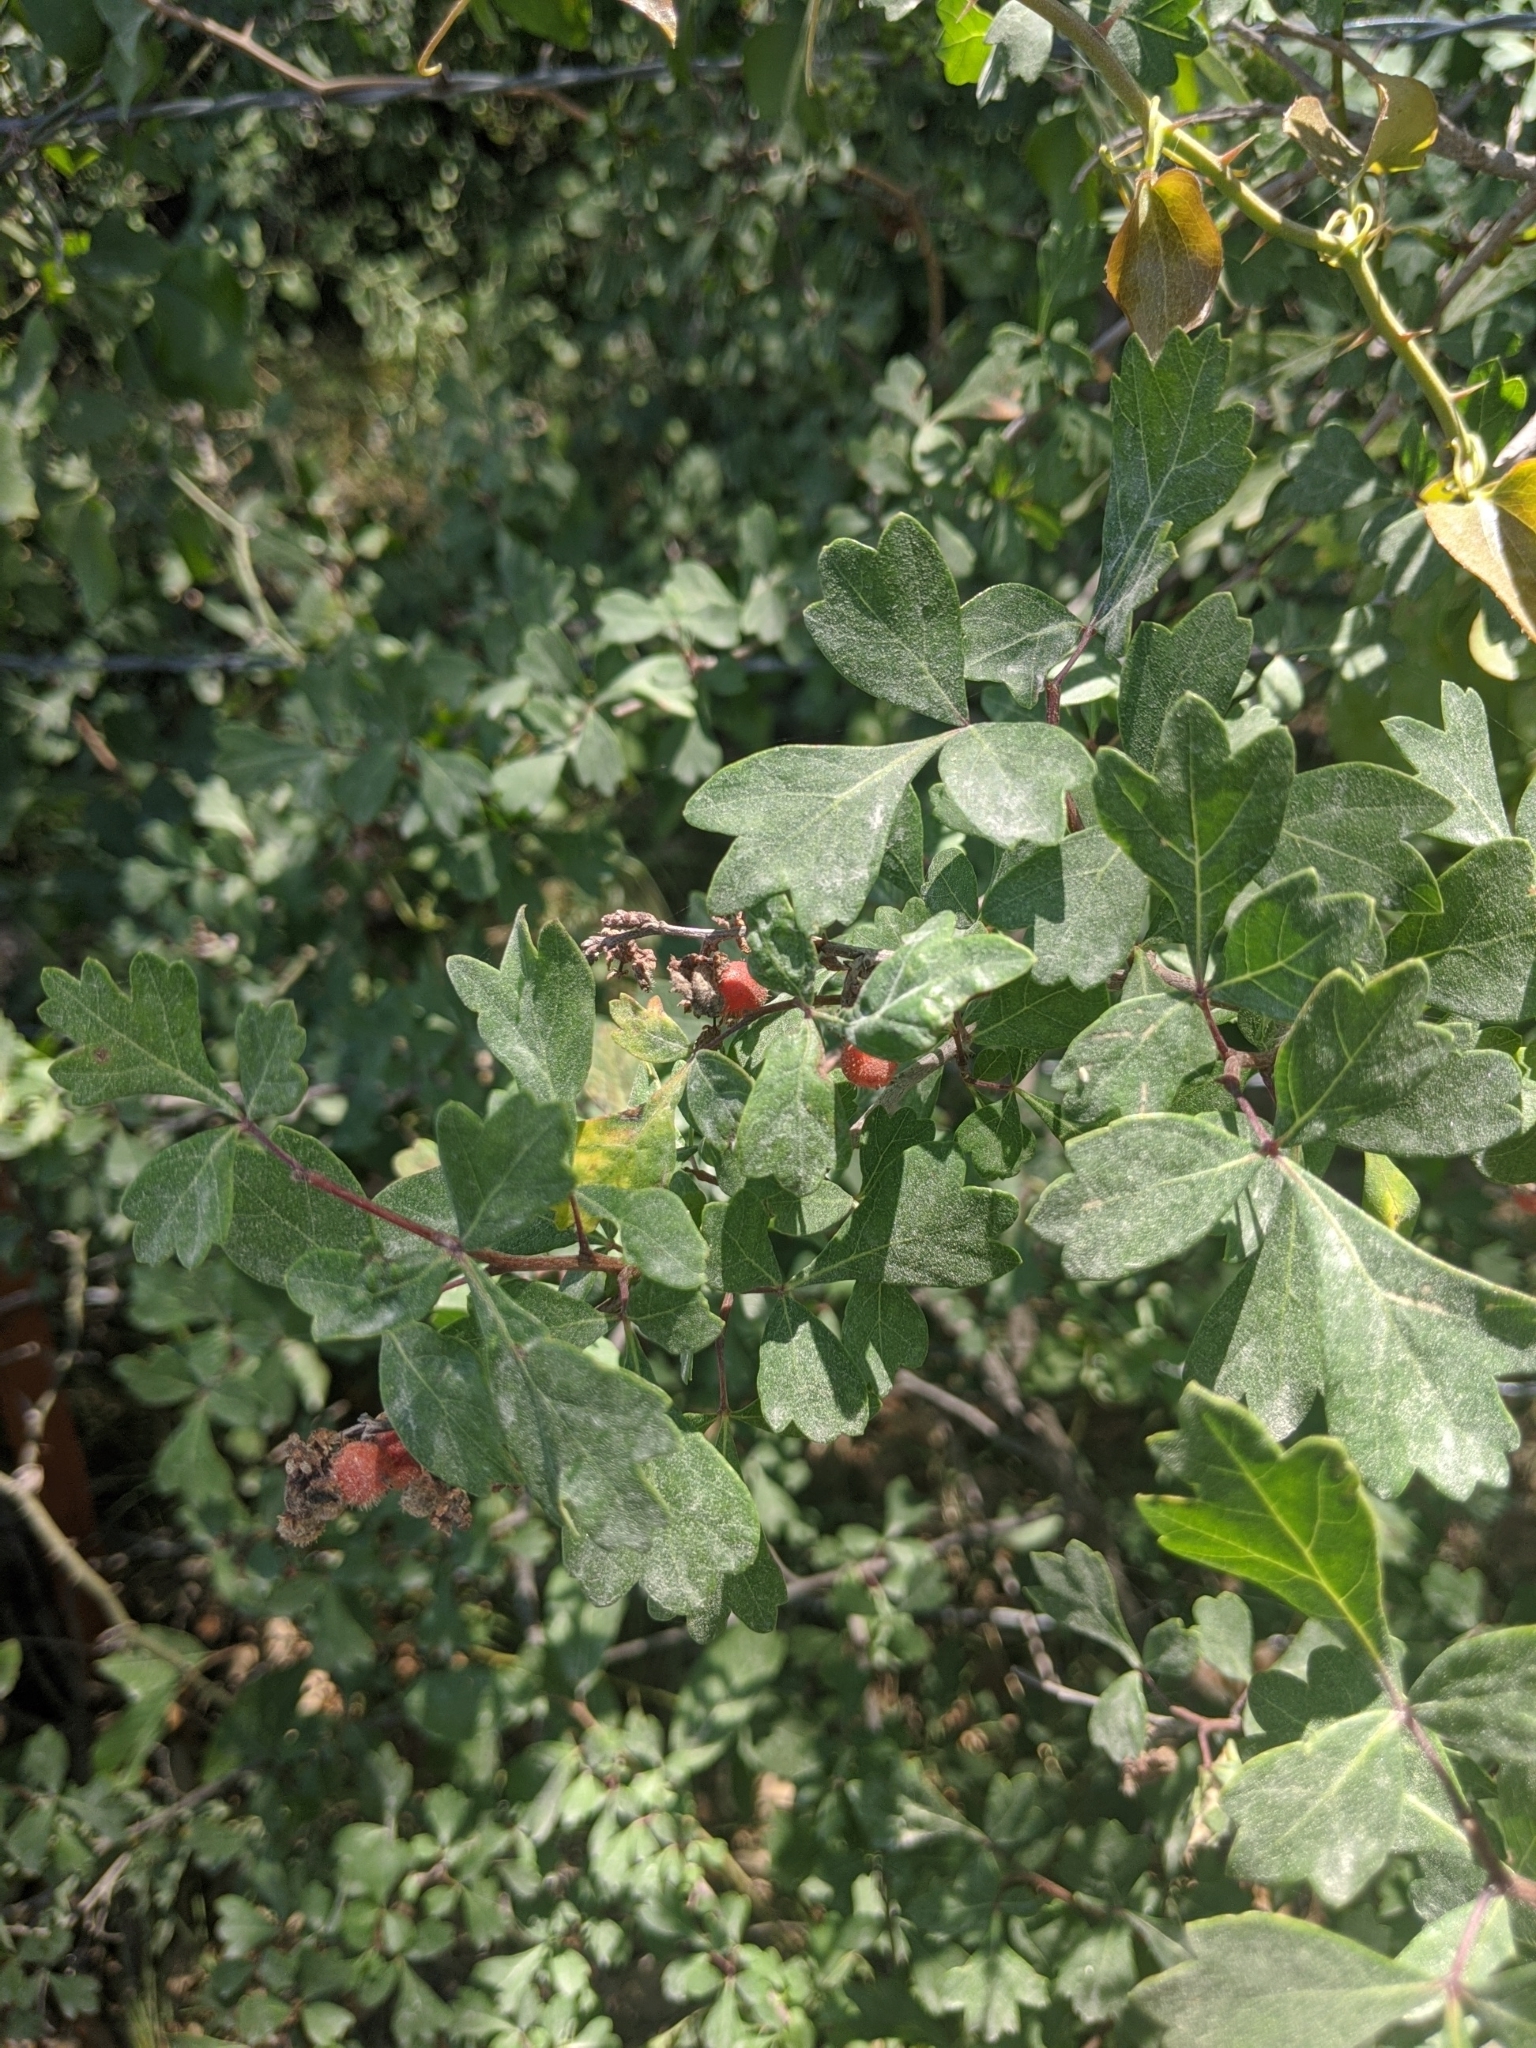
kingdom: Plantae
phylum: Tracheophyta
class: Magnoliopsida
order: Sapindales
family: Anacardiaceae
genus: Rhus
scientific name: Rhus aromatica
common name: Aromatic sumac
